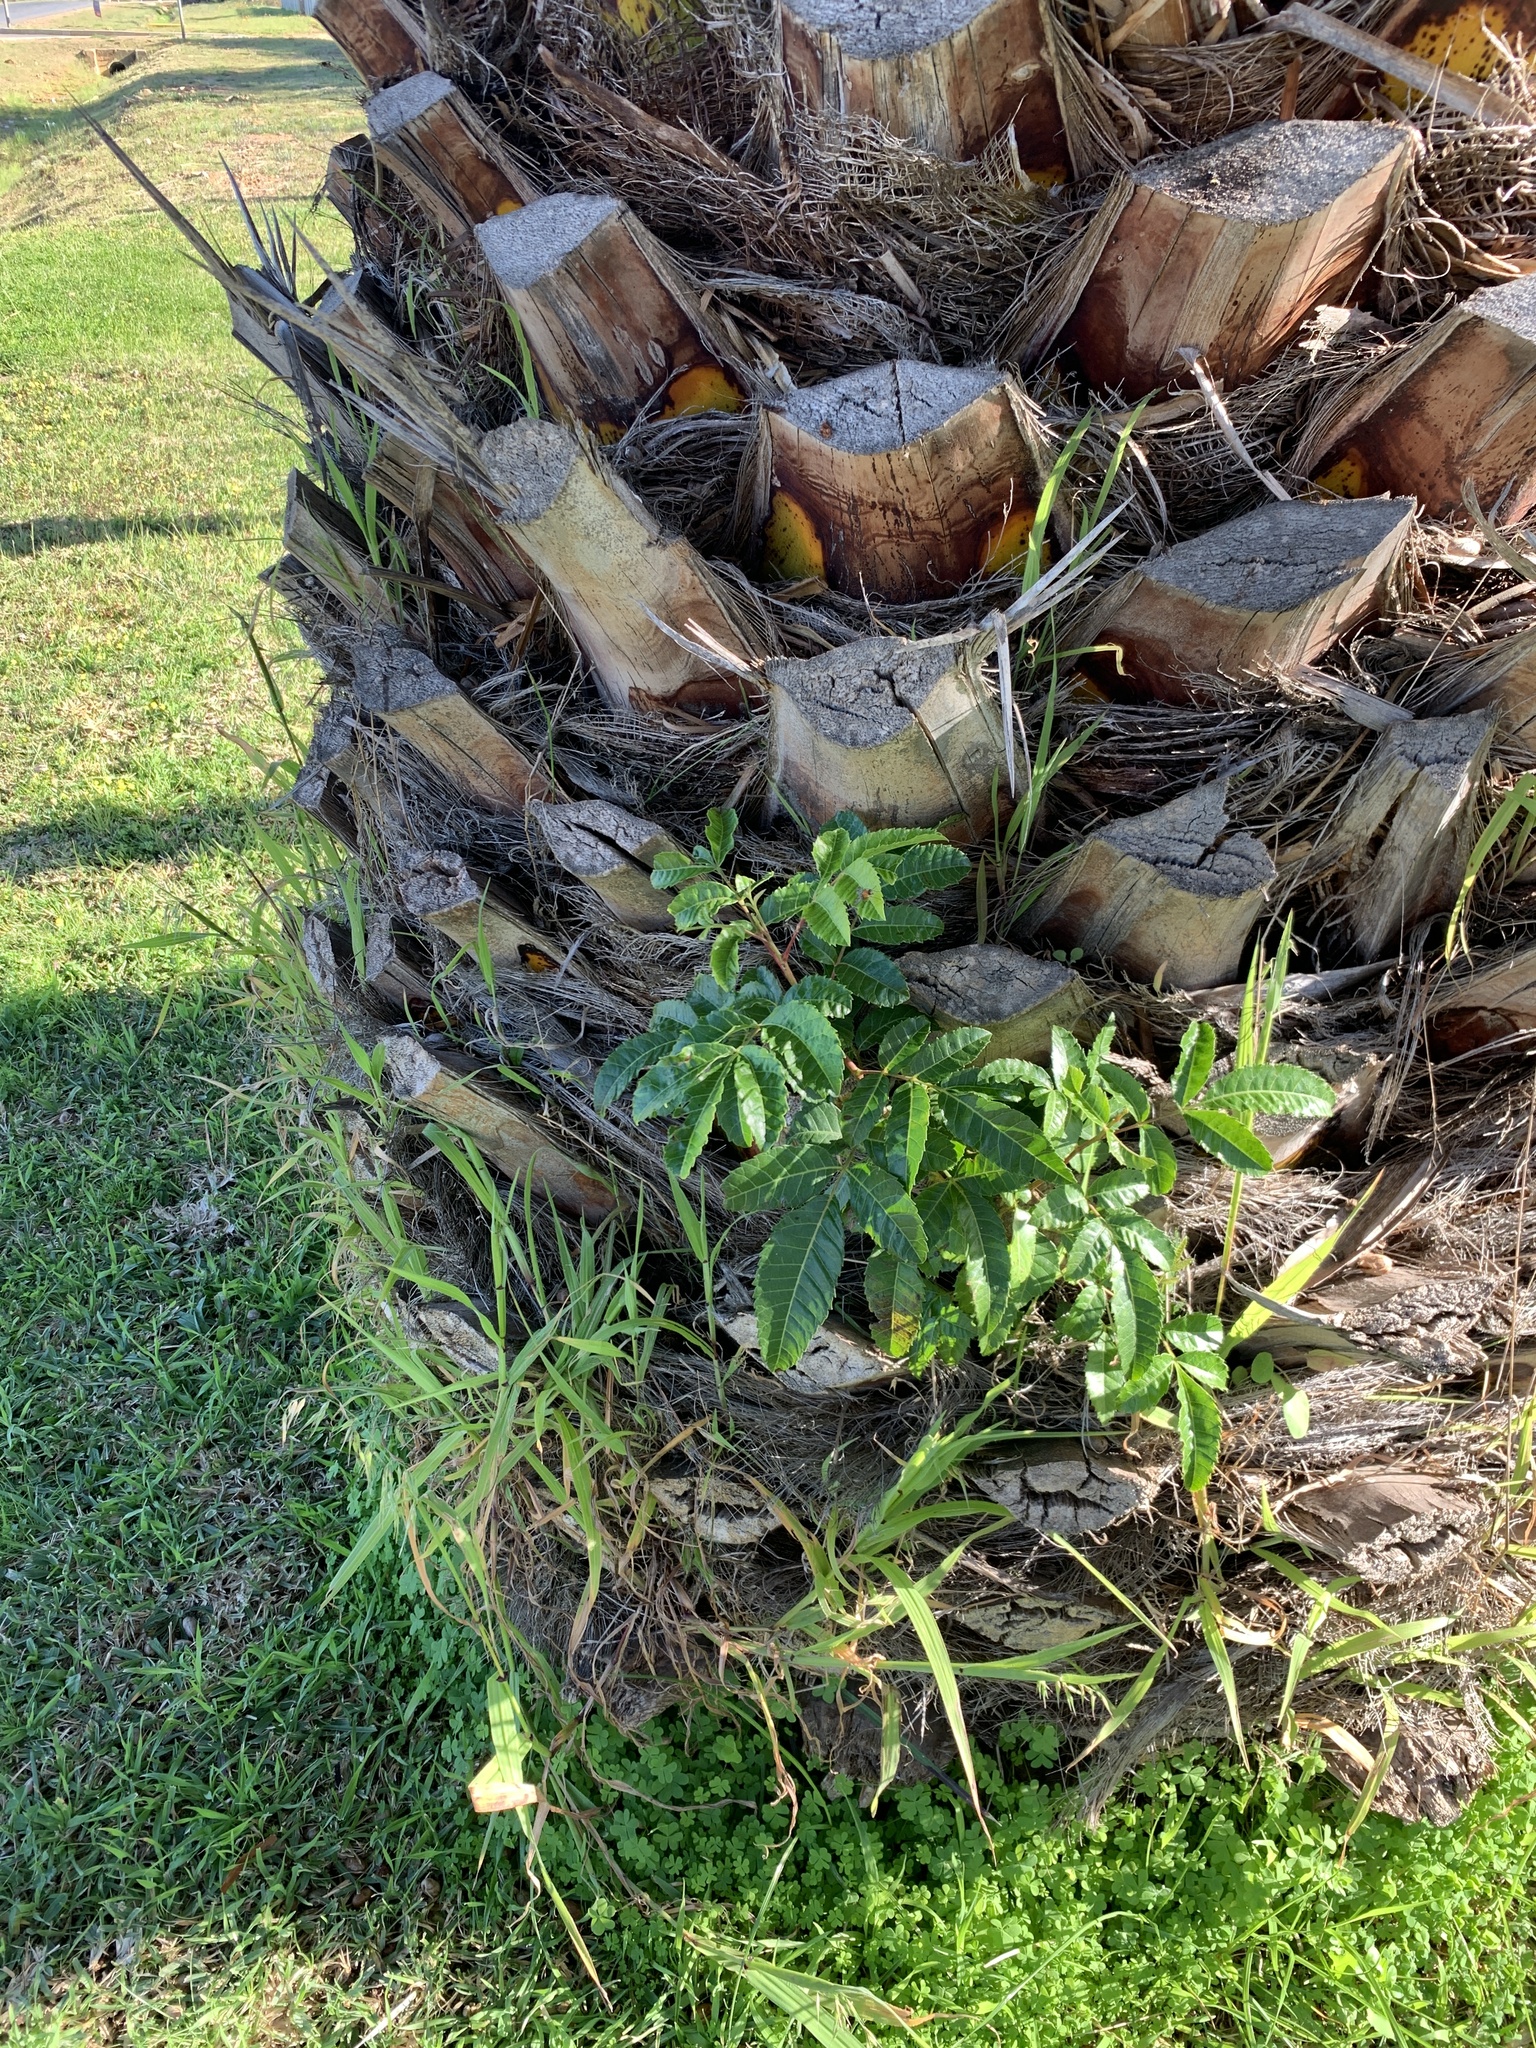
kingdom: Plantae
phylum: Tracheophyta
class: Magnoliopsida
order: Sapindales
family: Anacardiaceae
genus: Schinus
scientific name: Schinus terebinthifolia
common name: Brazilian peppertree
